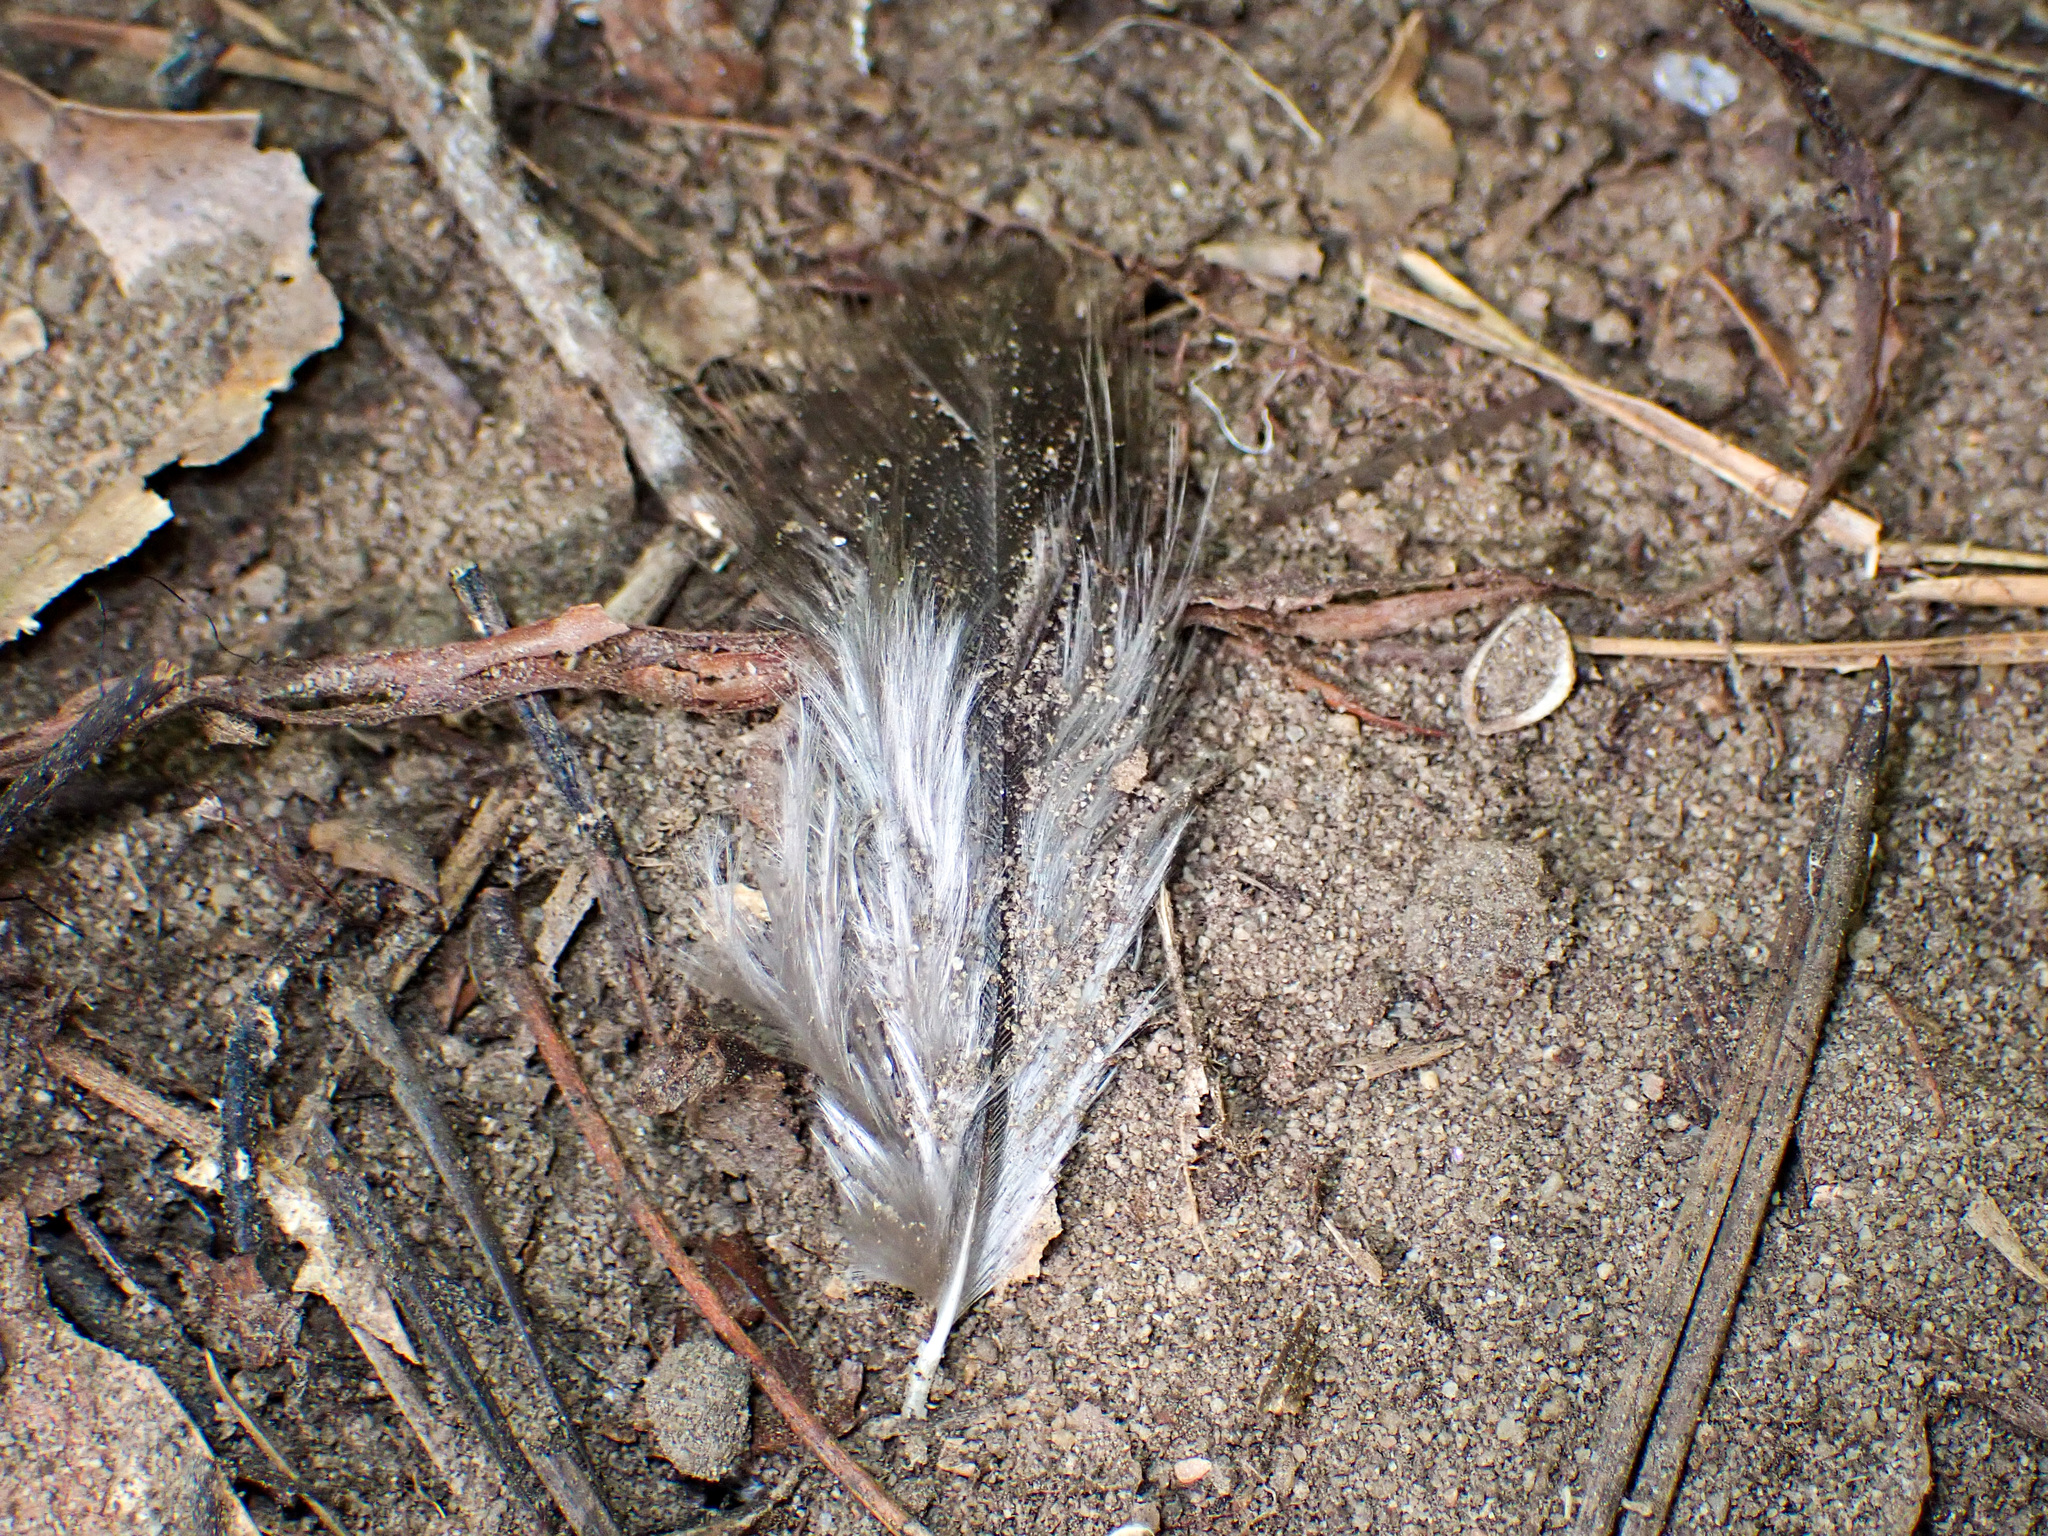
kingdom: Animalia
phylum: Chordata
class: Aves
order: Galliformes
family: Phasianidae
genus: Meleagris
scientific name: Meleagris gallopavo
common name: Wild turkey
